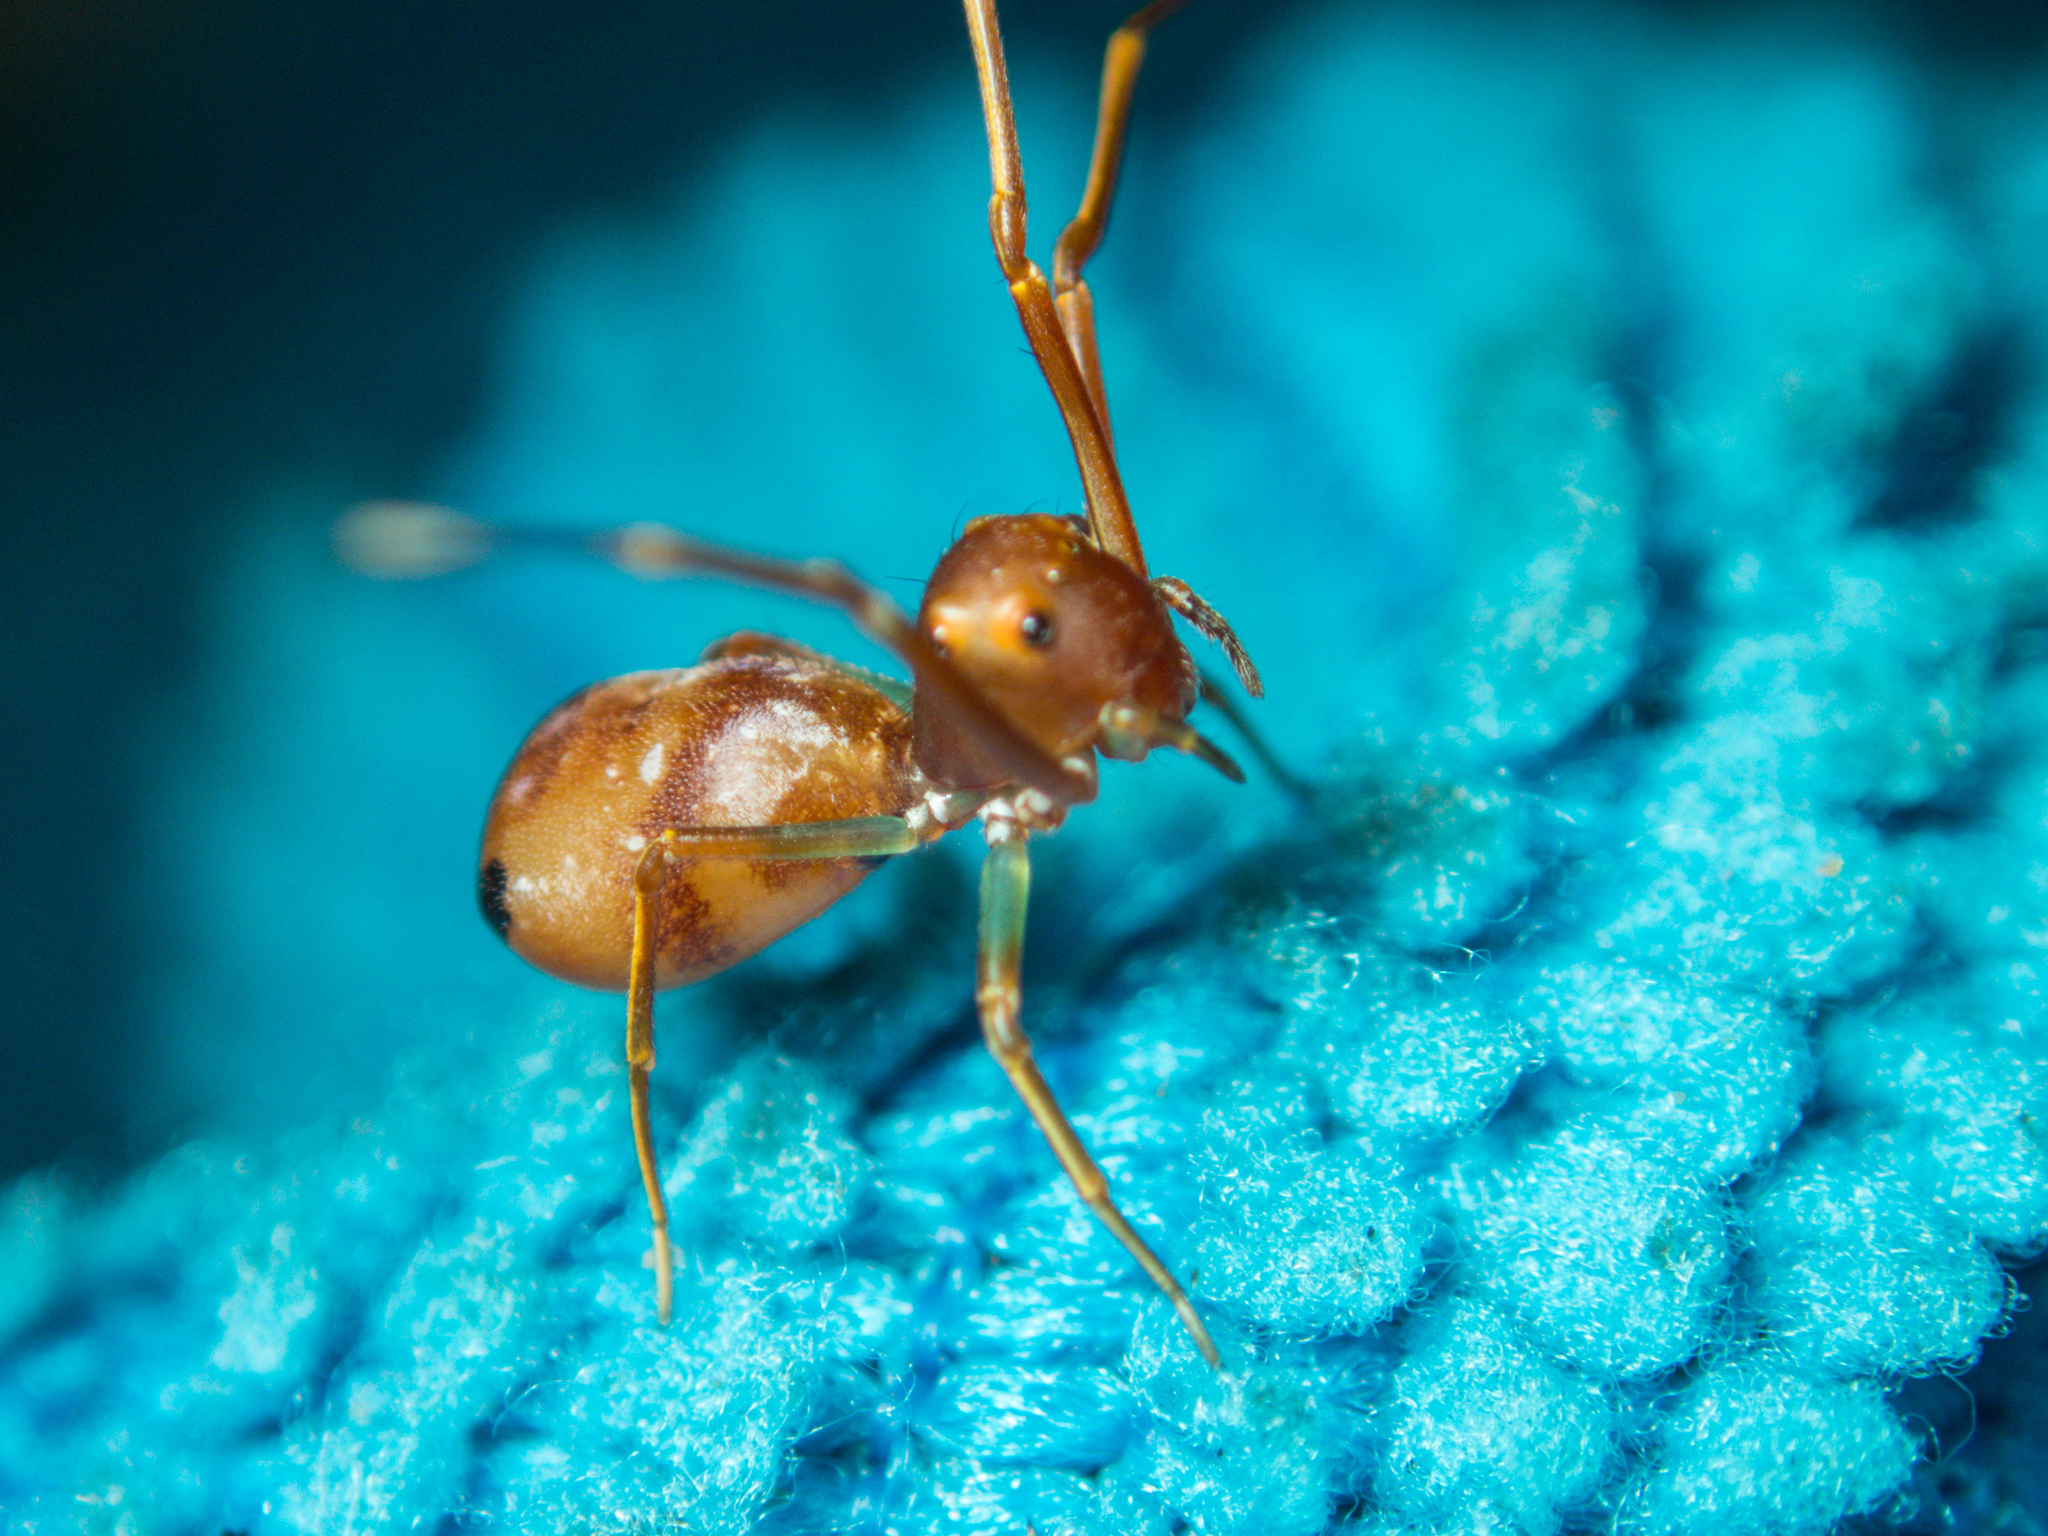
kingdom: Animalia
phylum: Arthropoda
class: Arachnida
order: Araneae
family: Thomisidae
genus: Amyciaea
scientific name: Amyciaea forticeps
